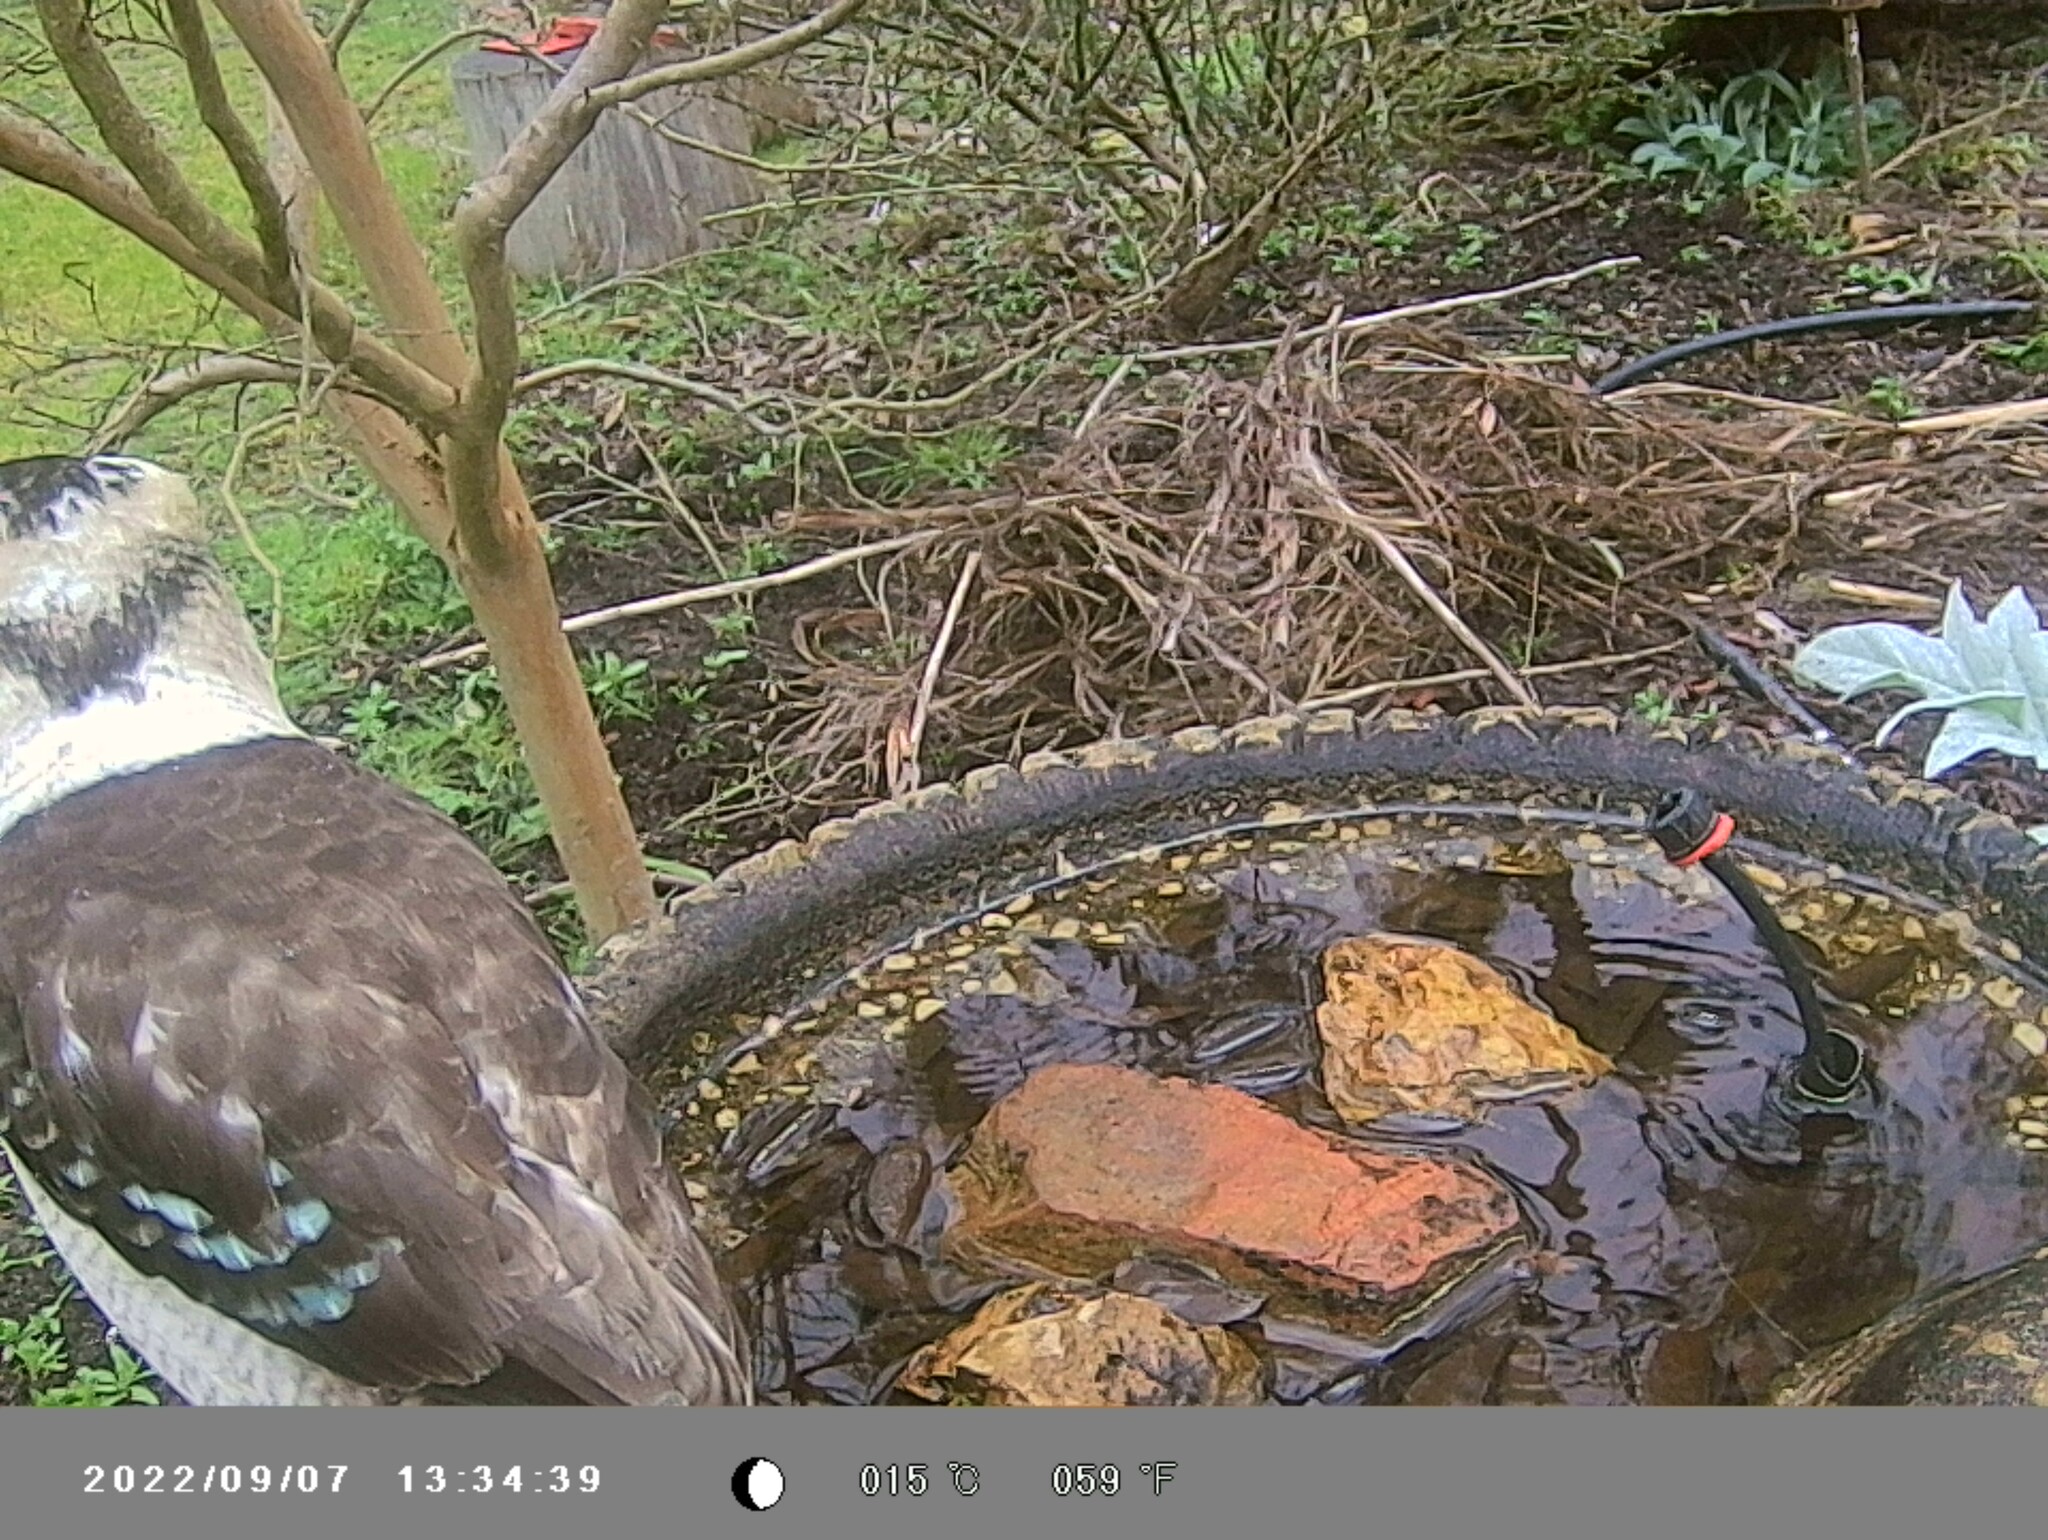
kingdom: Animalia
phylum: Chordata
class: Aves
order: Coraciiformes
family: Alcedinidae
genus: Dacelo
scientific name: Dacelo novaeguineae
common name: Laughing kookaburra
